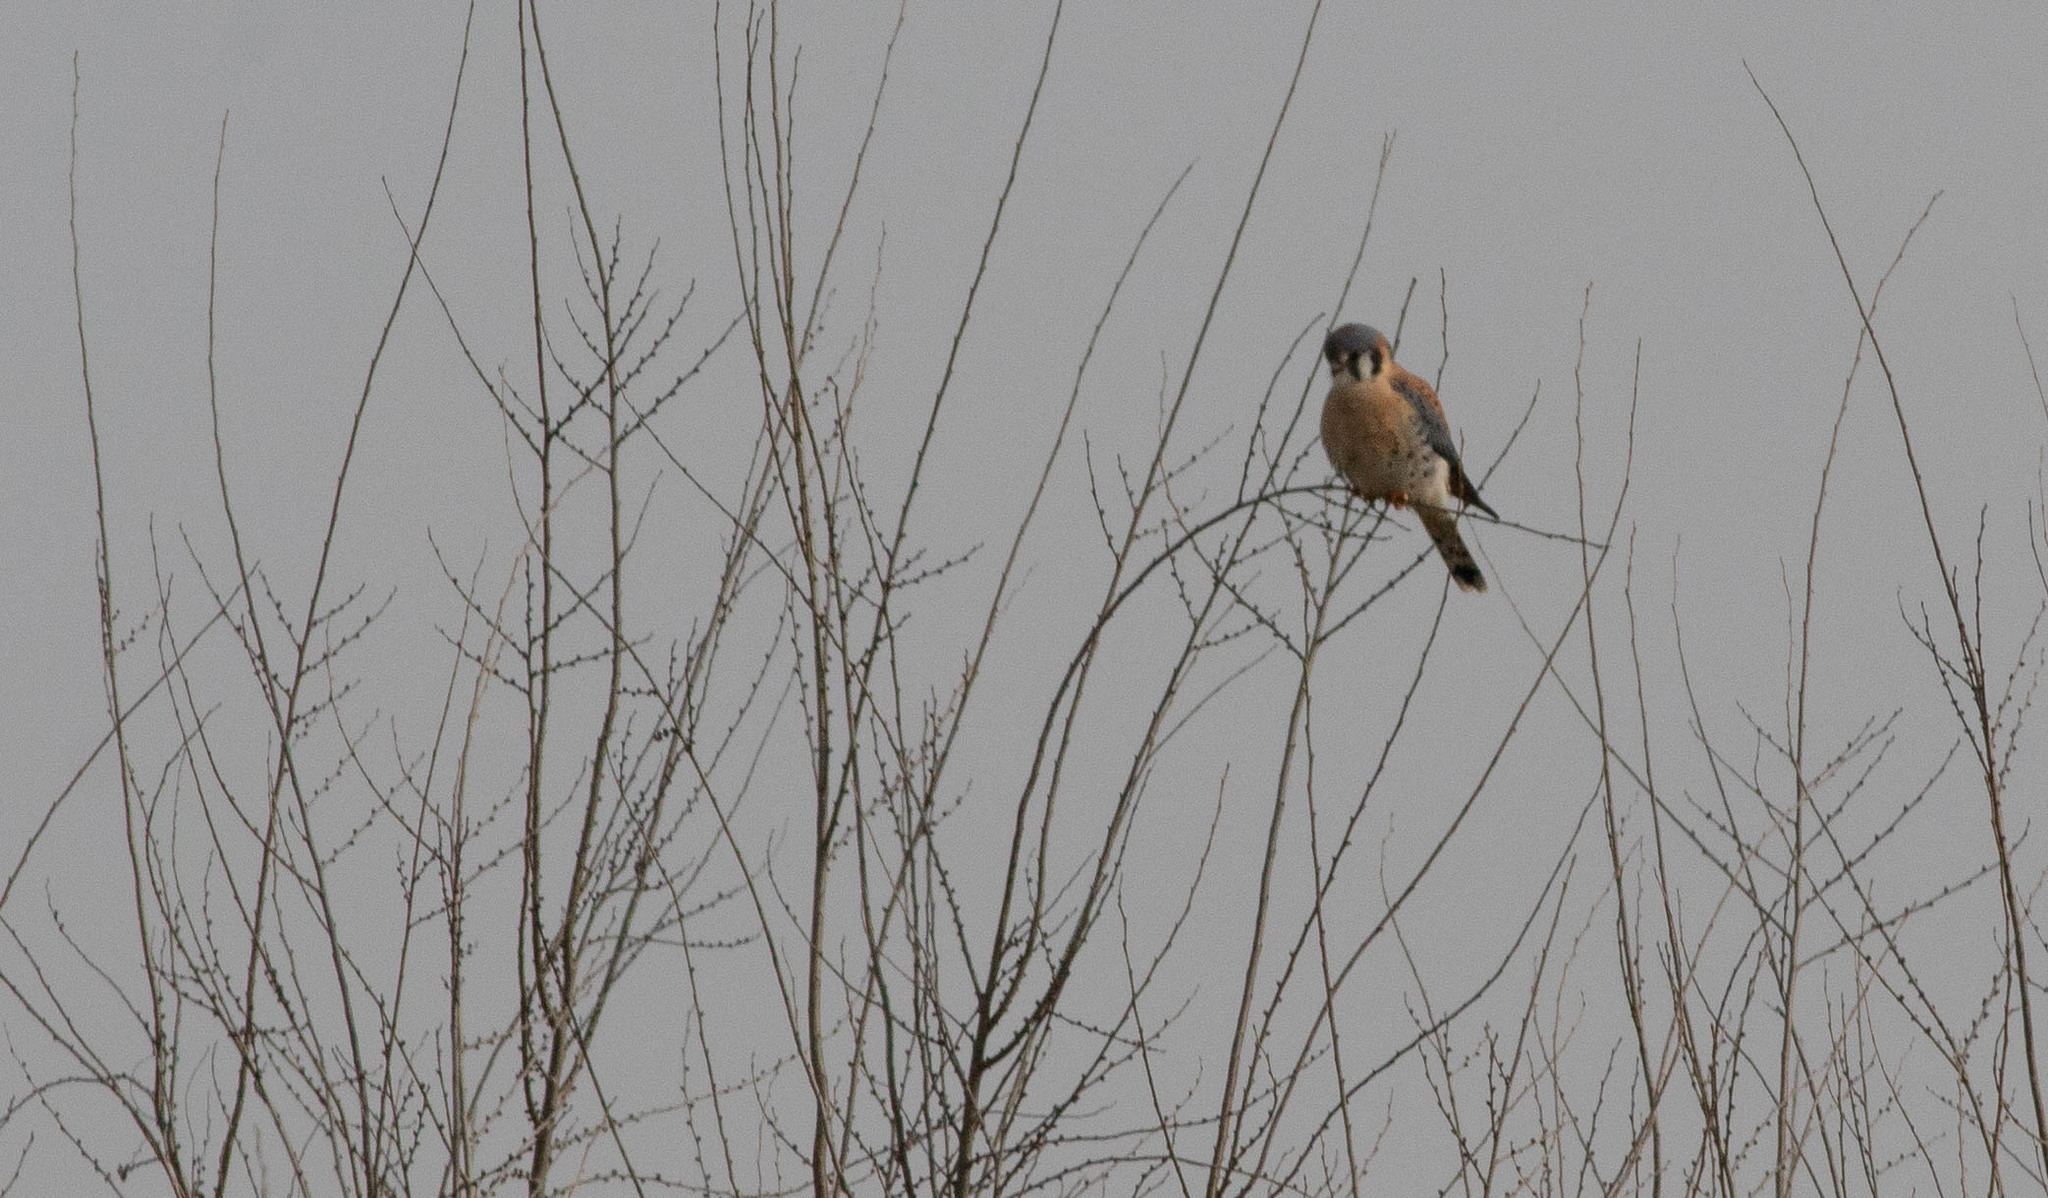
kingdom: Animalia
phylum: Chordata
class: Aves
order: Falconiformes
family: Falconidae
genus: Falco
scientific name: Falco sparverius
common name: American kestrel
